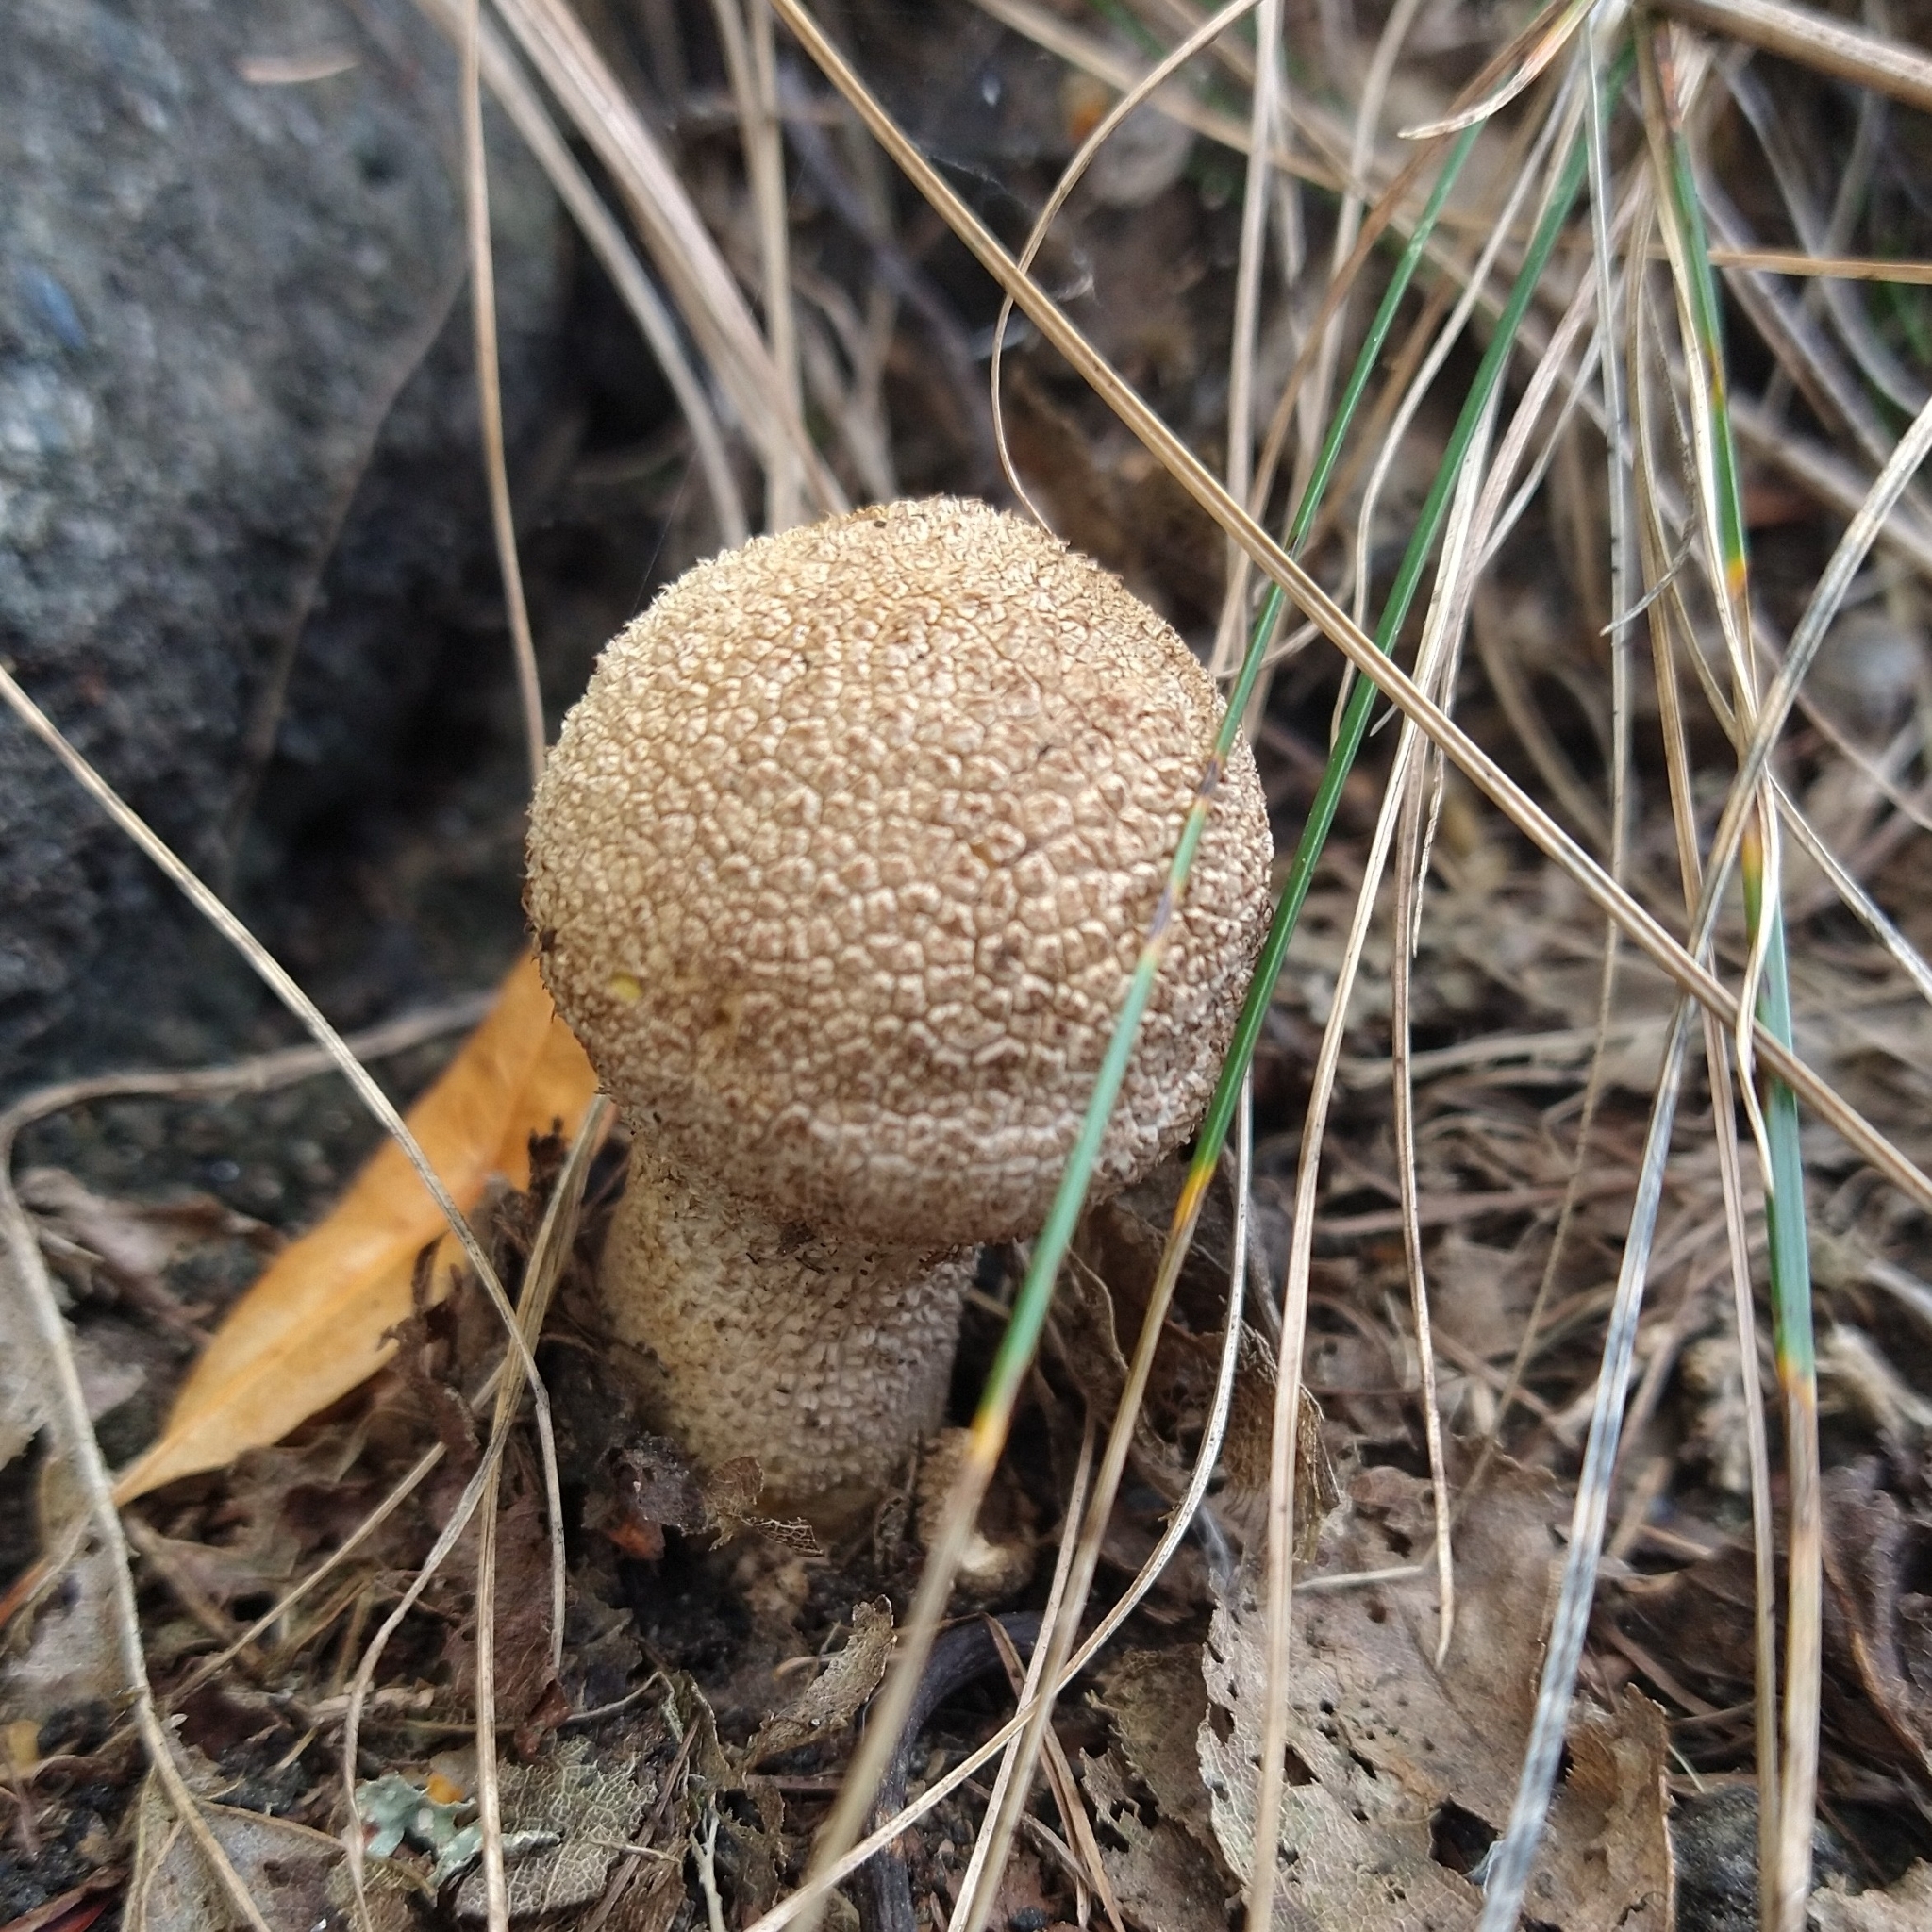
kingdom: Fungi
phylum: Basidiomycota
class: Agaricomycetes
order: Agaricales
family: Lycoperdaceae
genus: Lycoperdon
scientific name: Lycoperdon excipuliforme
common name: Pestle puffball
